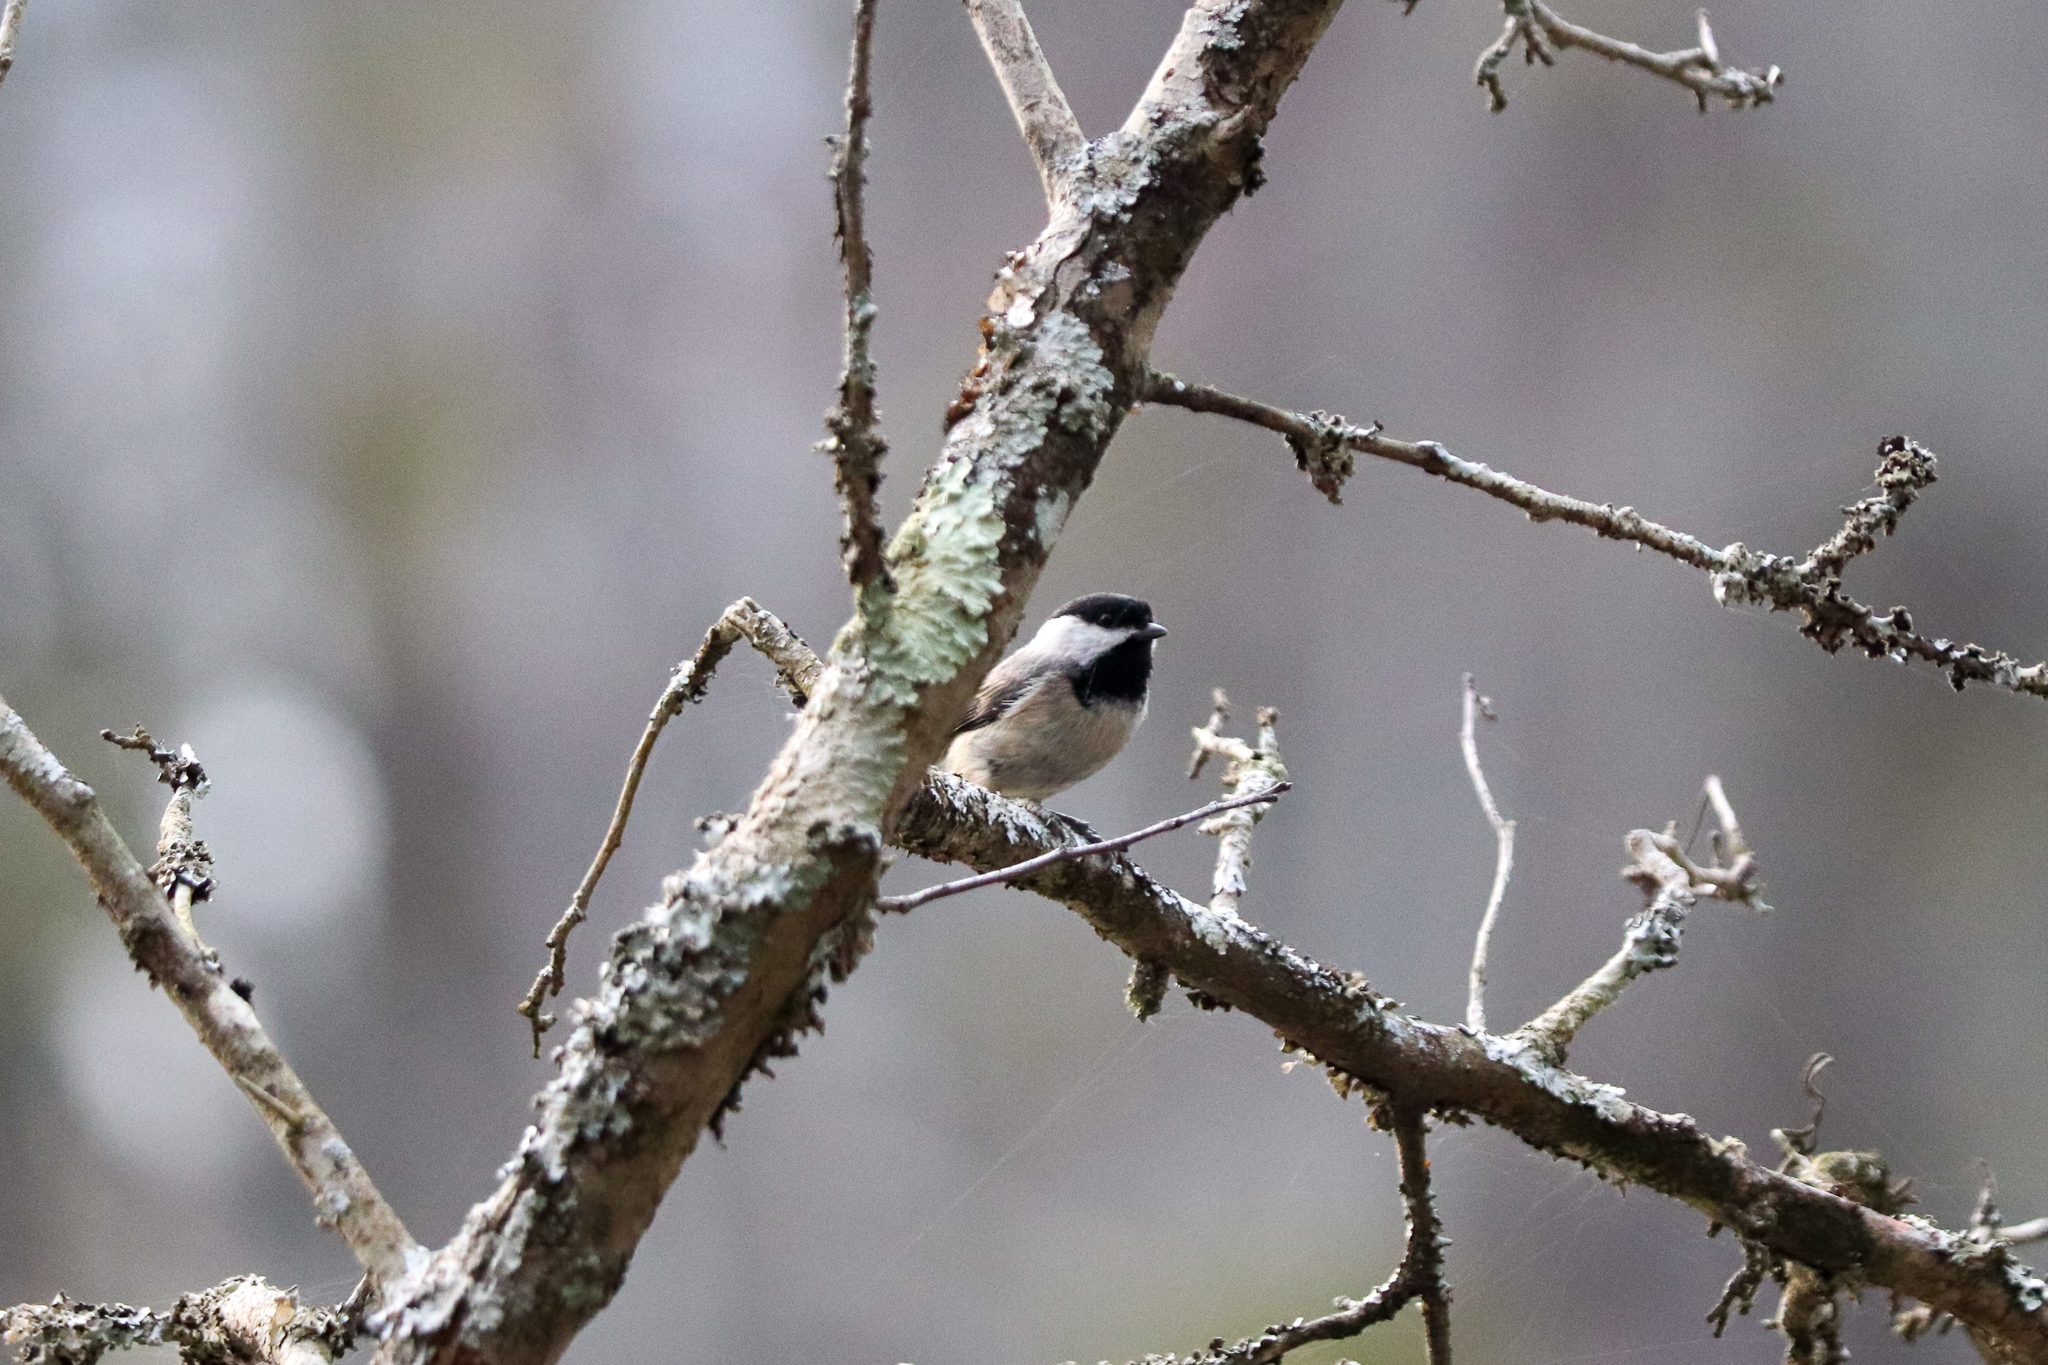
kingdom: Animalia
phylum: Chordata
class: Aves
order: Passeriformes
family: Paridae
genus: Poecile
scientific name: Poecile carolinensis
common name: Carolina chickadee
